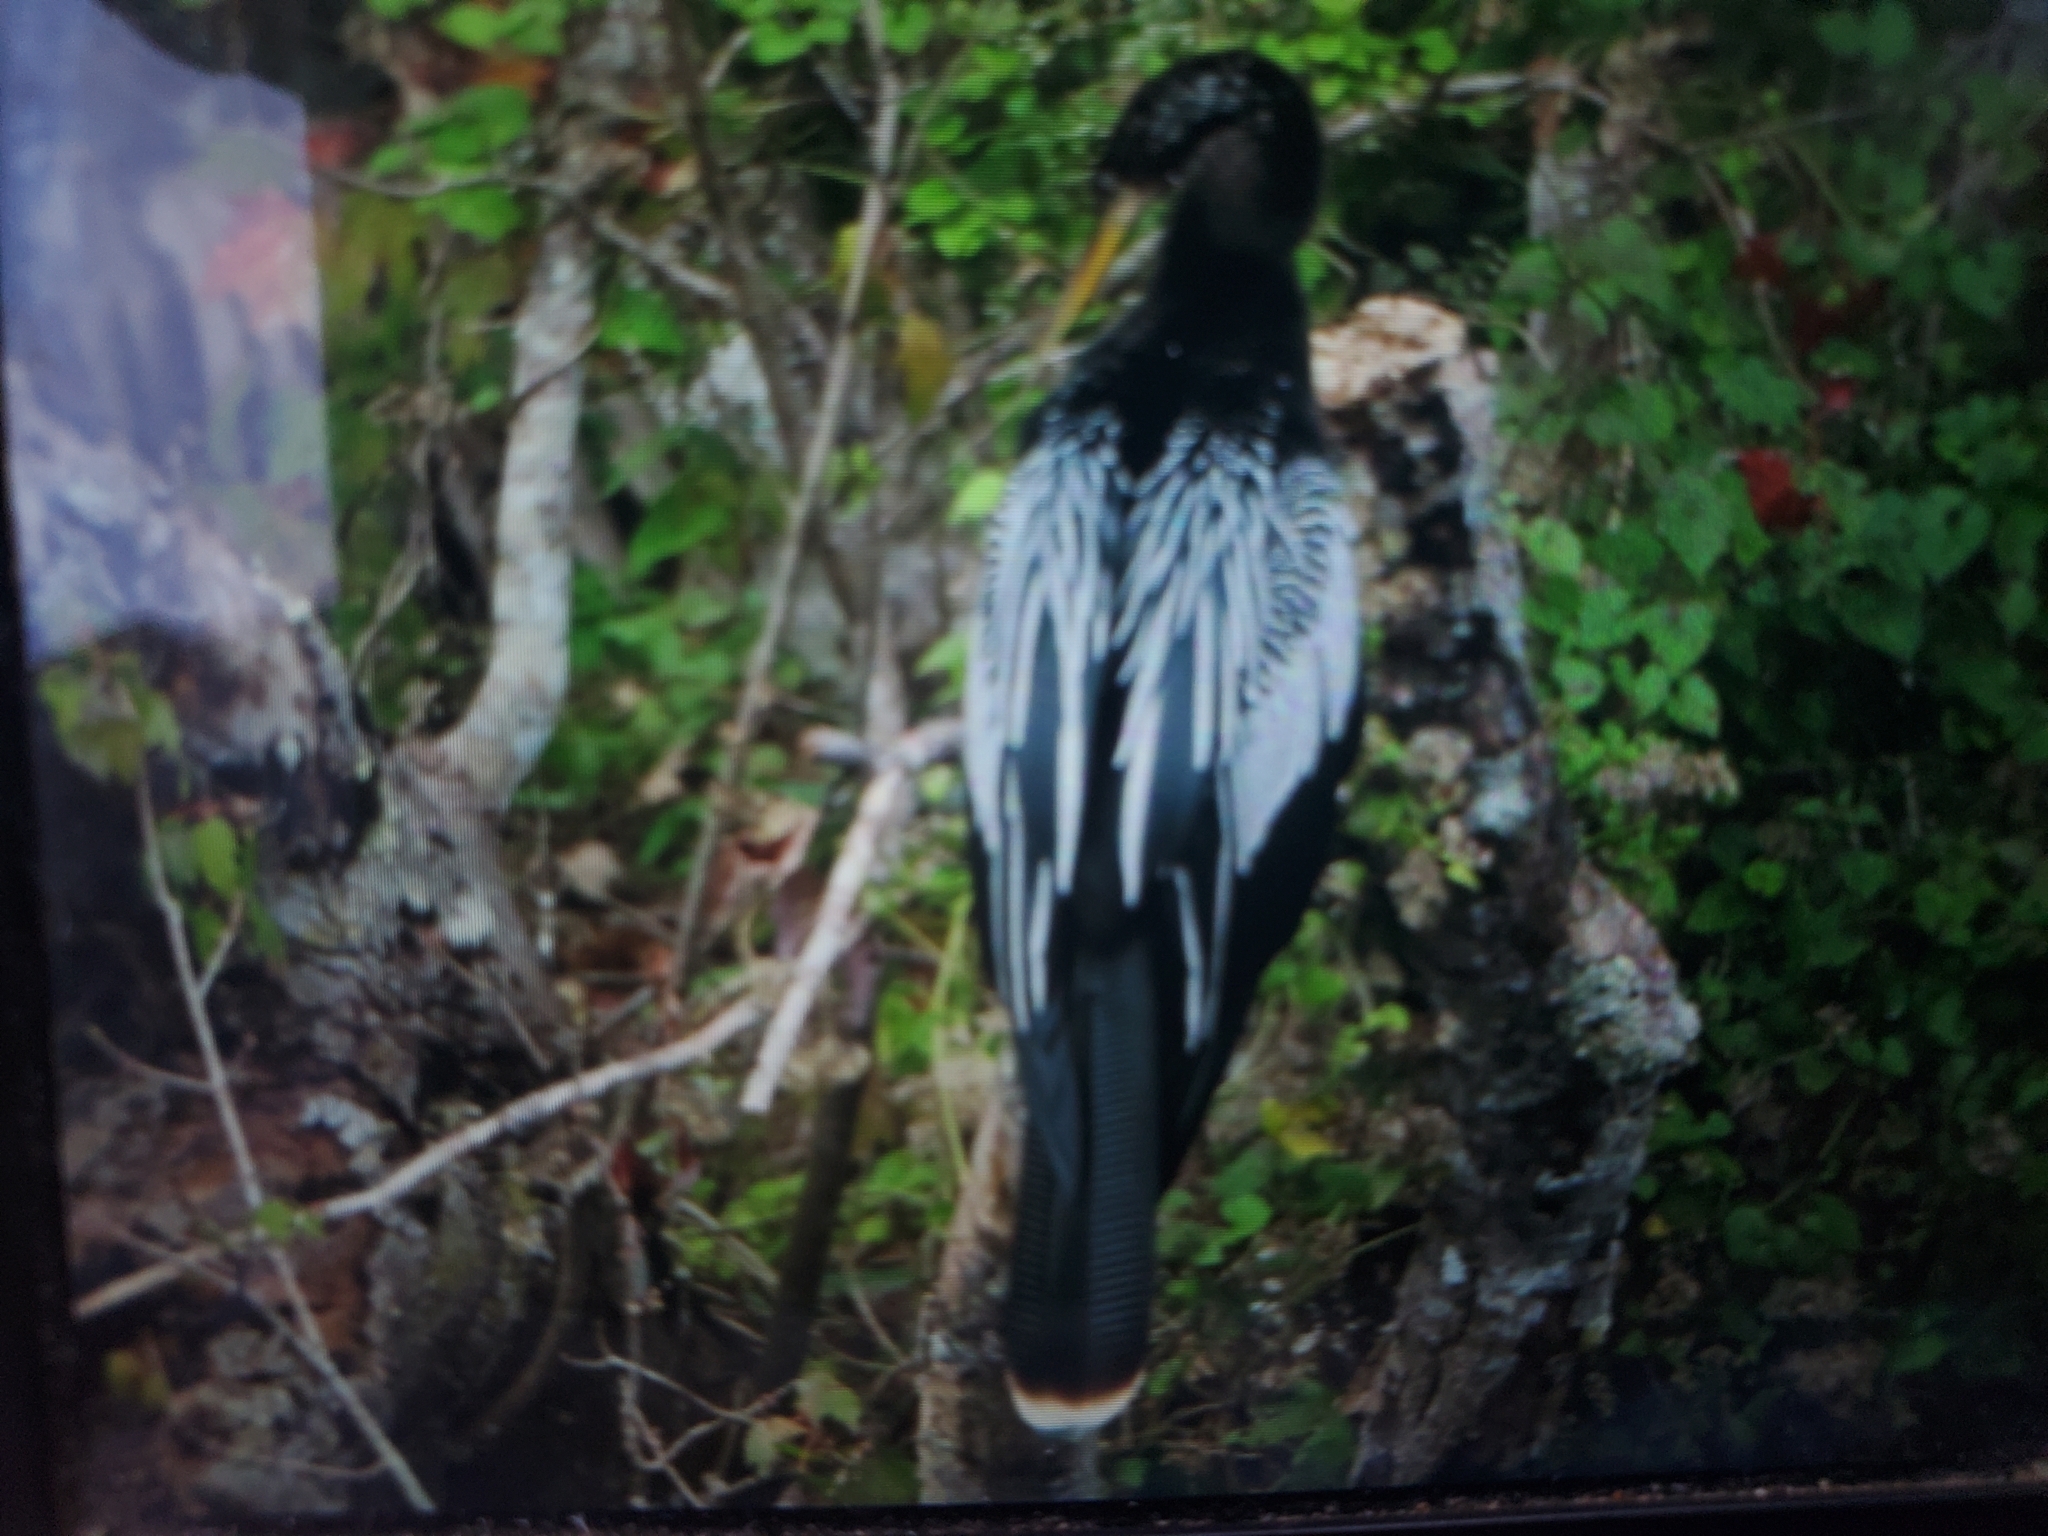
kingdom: Animalia
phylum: Chordata
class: Aves
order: Suliformes
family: Anhingidae
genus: Anhinga
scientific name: Anhinga anhinga
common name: Anhinga
